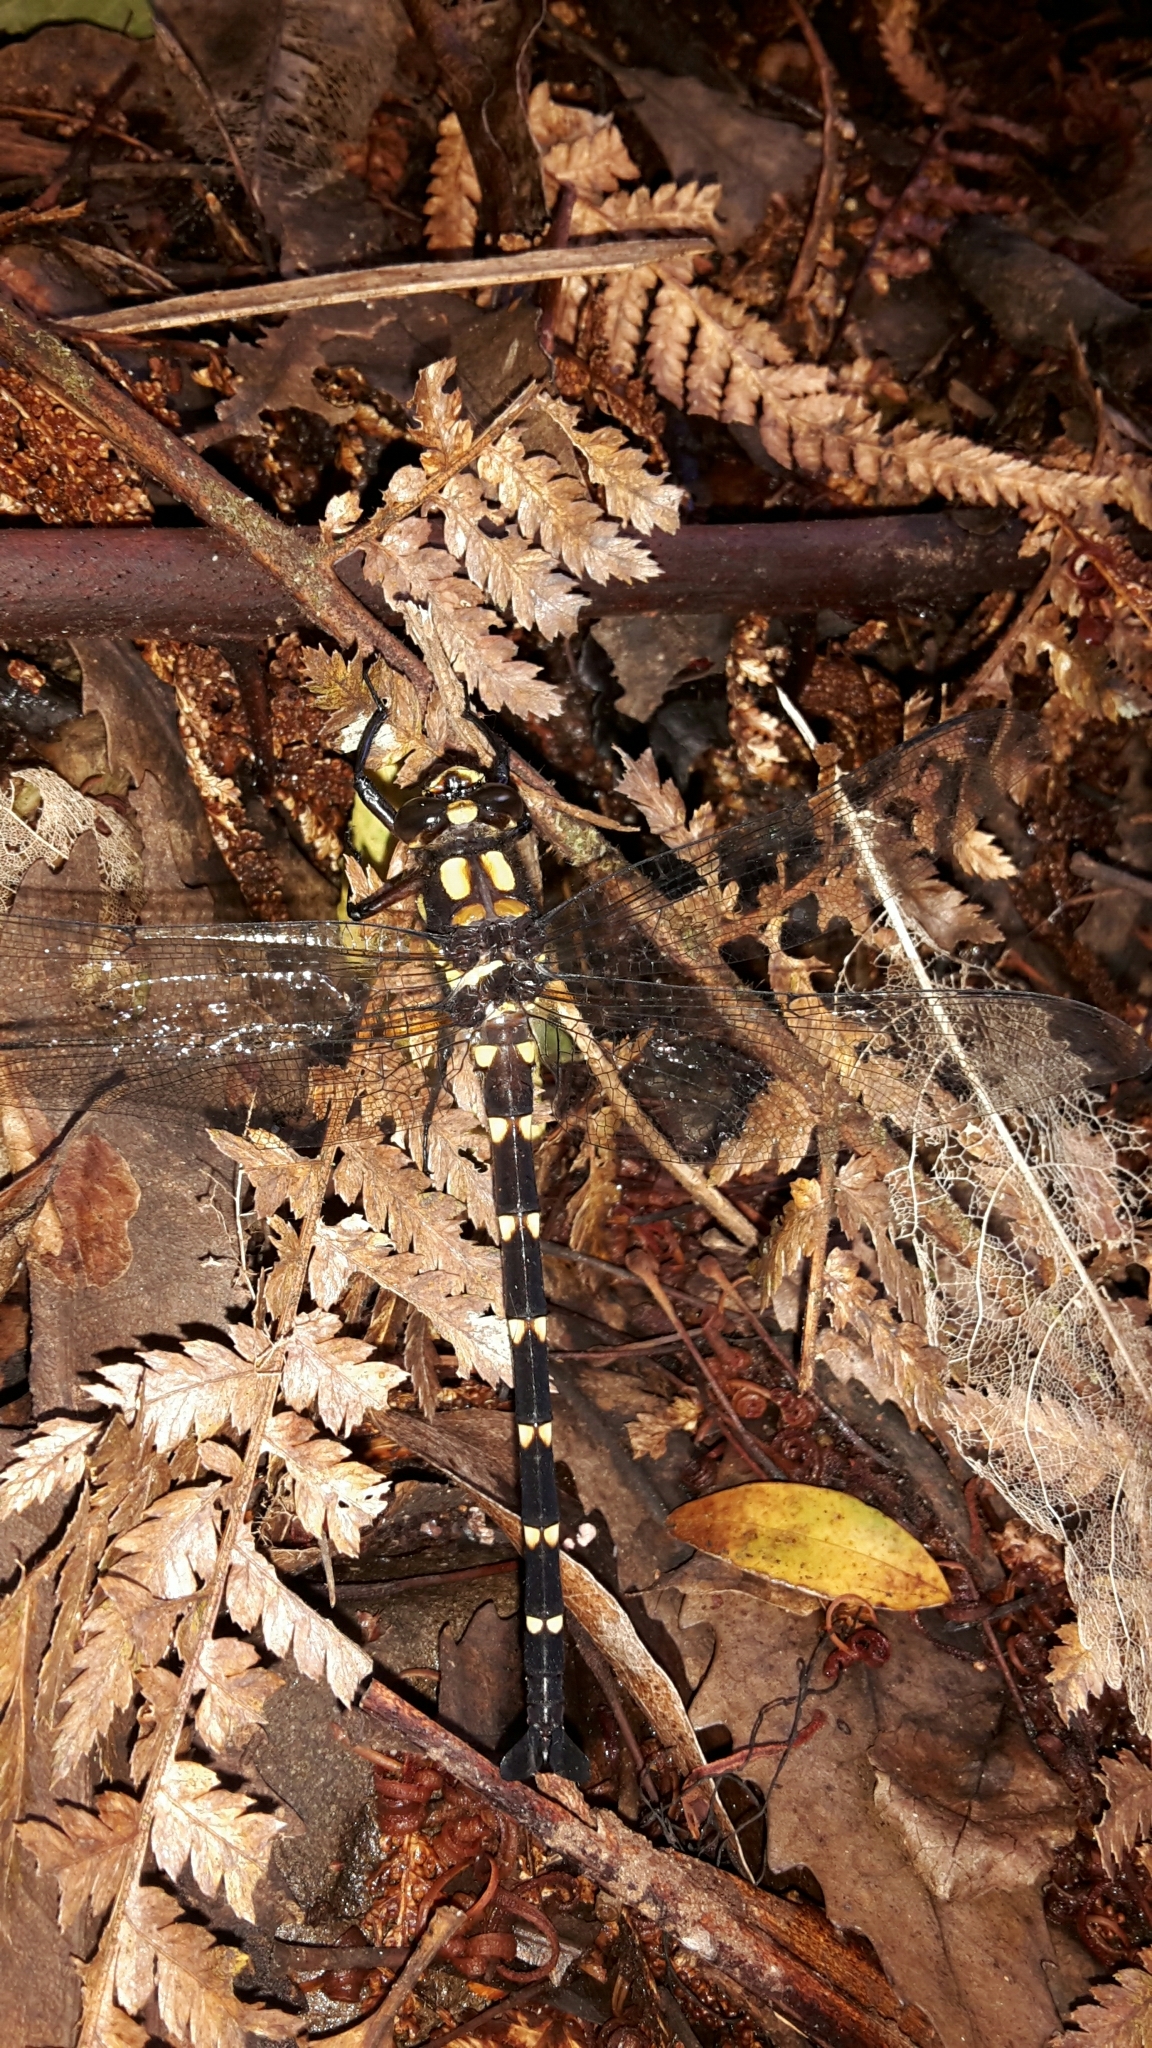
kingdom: Animalia
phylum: Arthropoda
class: Insecta
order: Odonata
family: Petaluridae
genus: Uropetala
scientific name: Uropetala carovei
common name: Bush giant dragonfly
